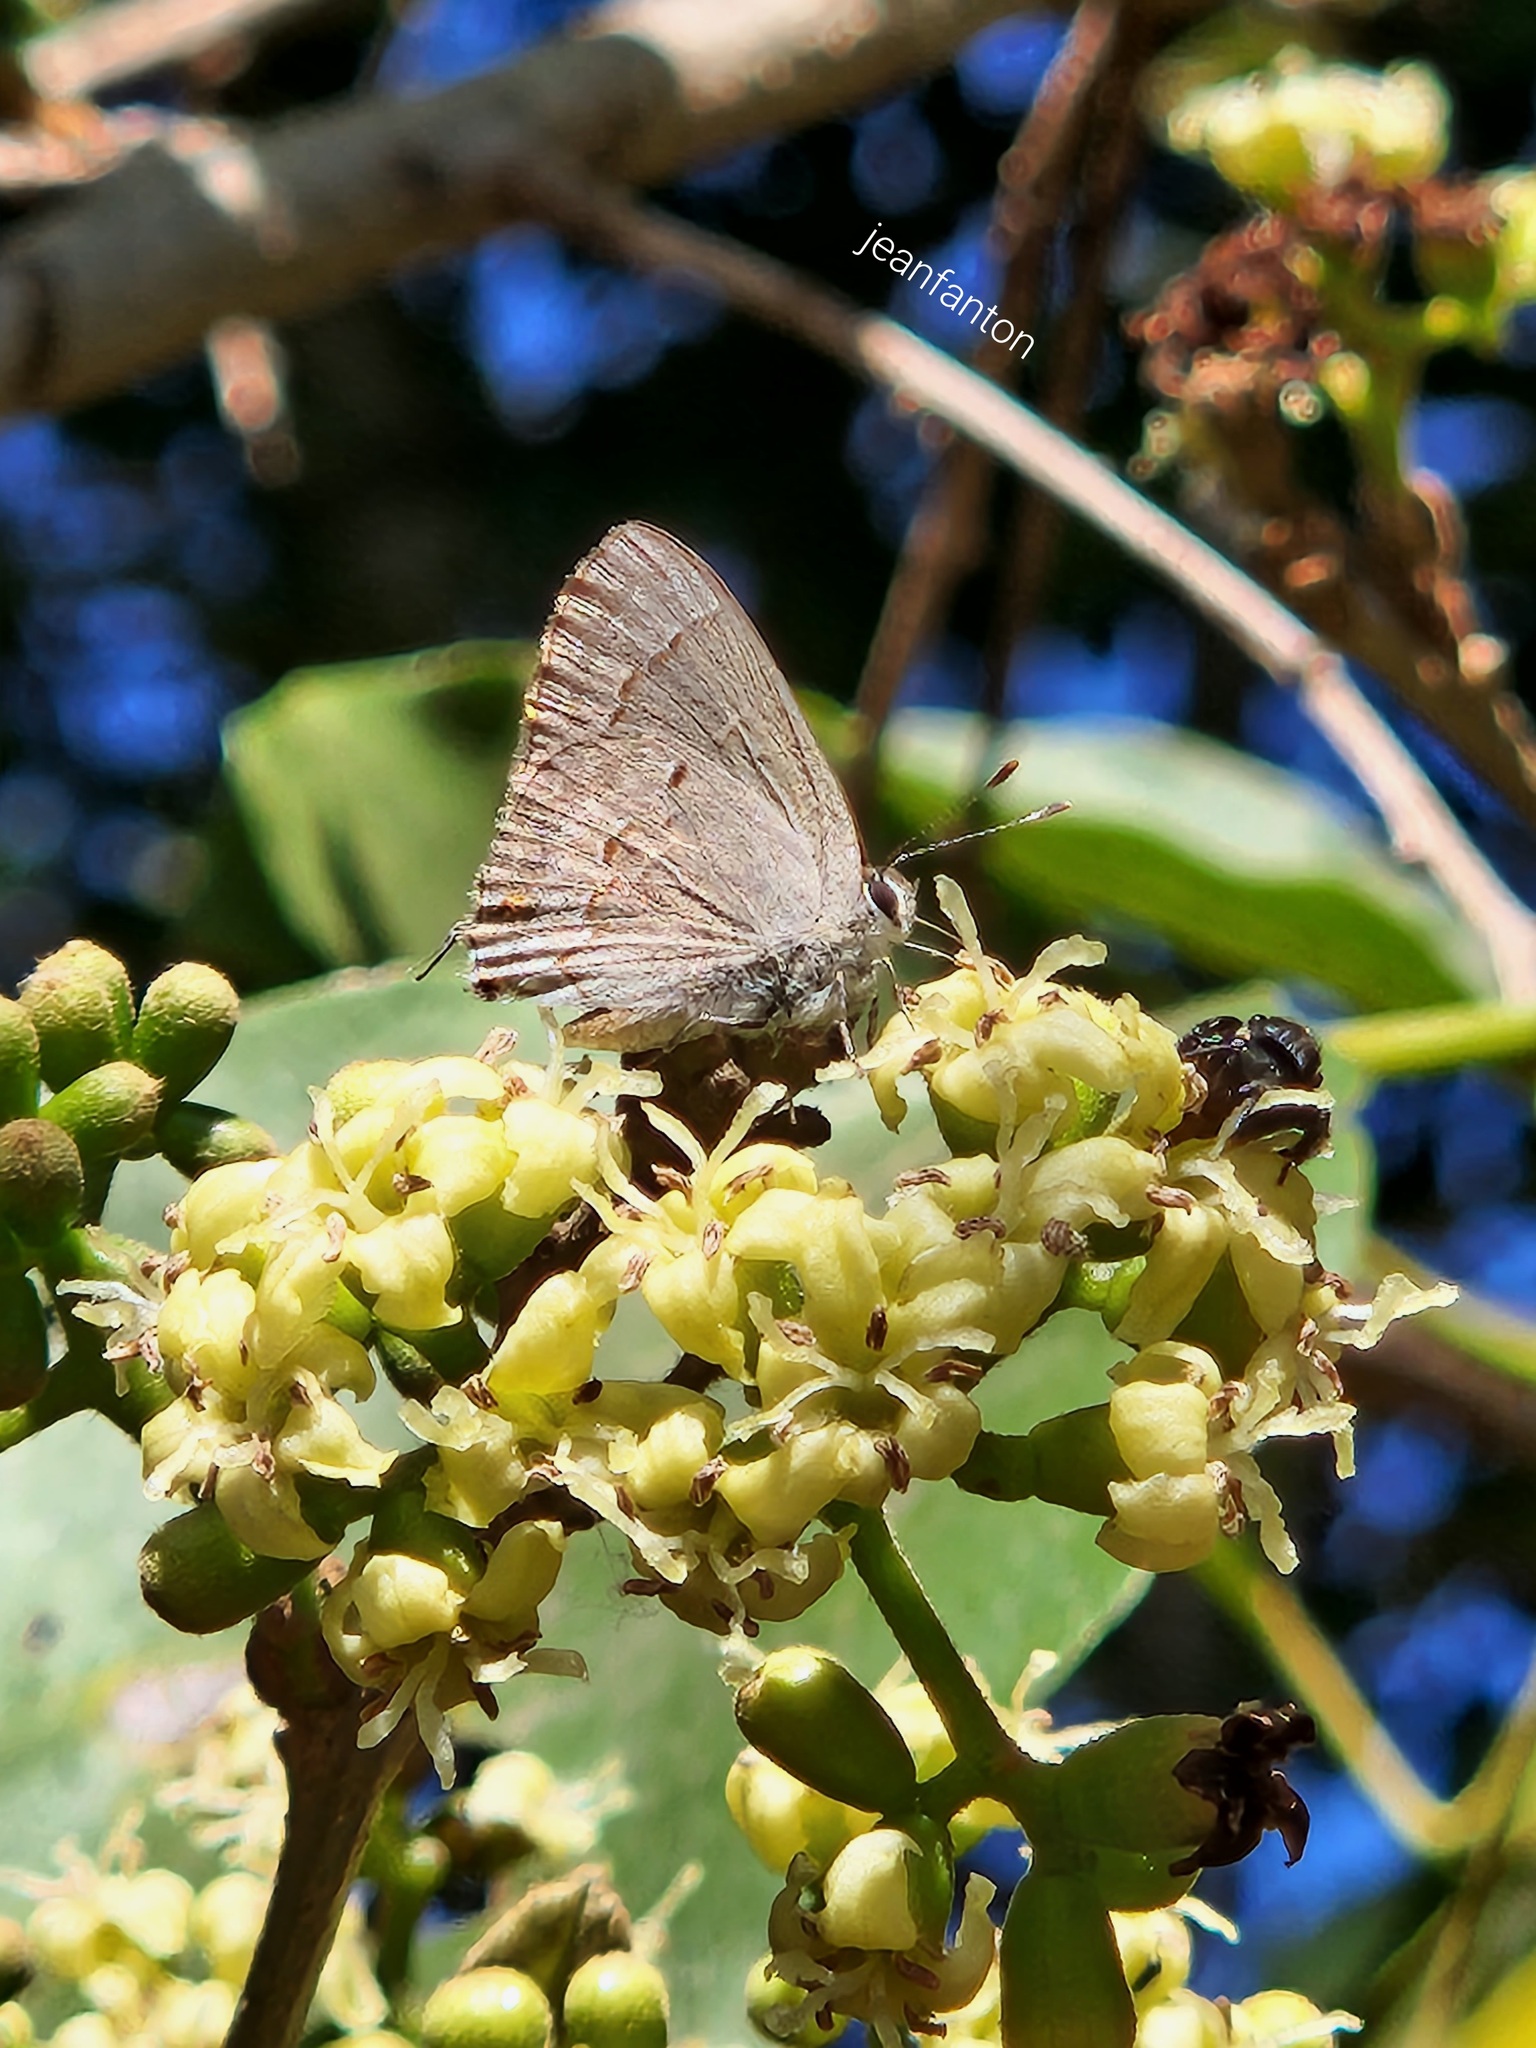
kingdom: Animalia
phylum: Arthropoda
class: Insecta
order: Lepidoptera
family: Lycaenidae
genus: Thecla
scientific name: Thecla rufofusca
